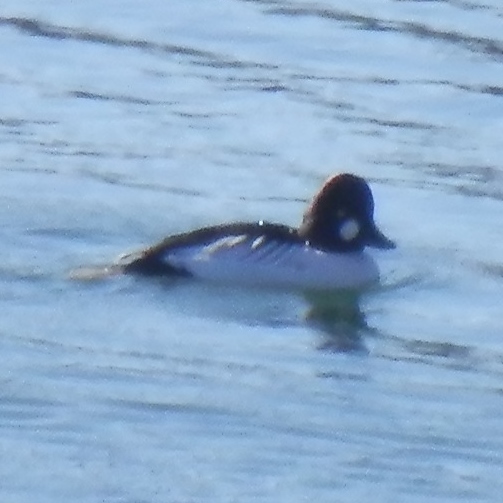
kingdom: Animalia
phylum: Chordata
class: Aves
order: Anseriformes
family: Anatidae
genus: Bucephala
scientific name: Bucephala clangula
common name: Common goldeneye
